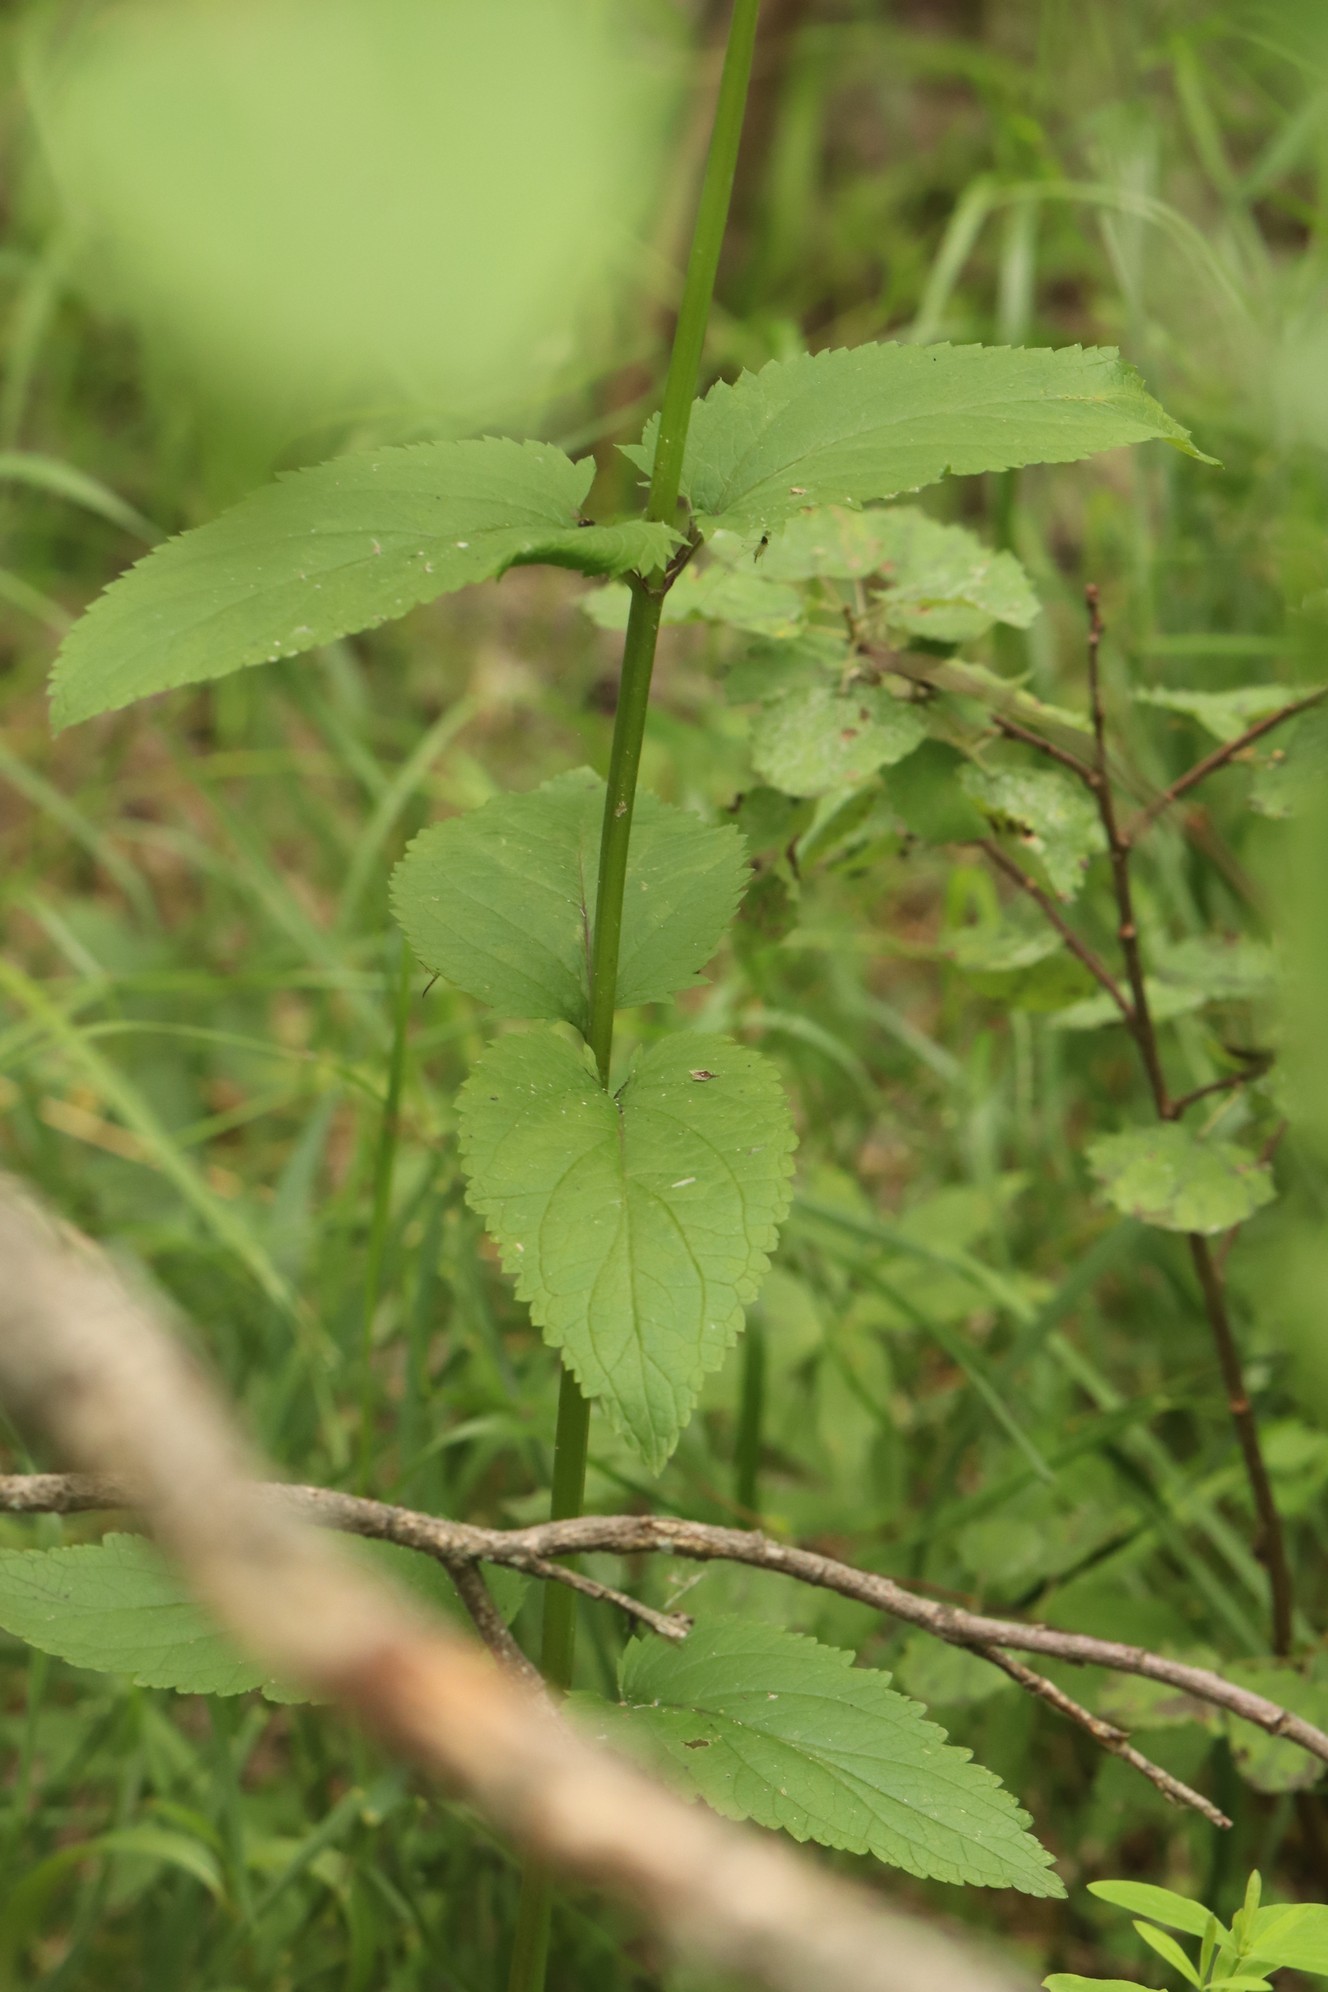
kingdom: Plantae
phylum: Tracheophyta
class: Magnoliopsida
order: Lamiales
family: Scrophulariaceae
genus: Scrophularia
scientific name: Scrophularia nodosa
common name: Common figwort
